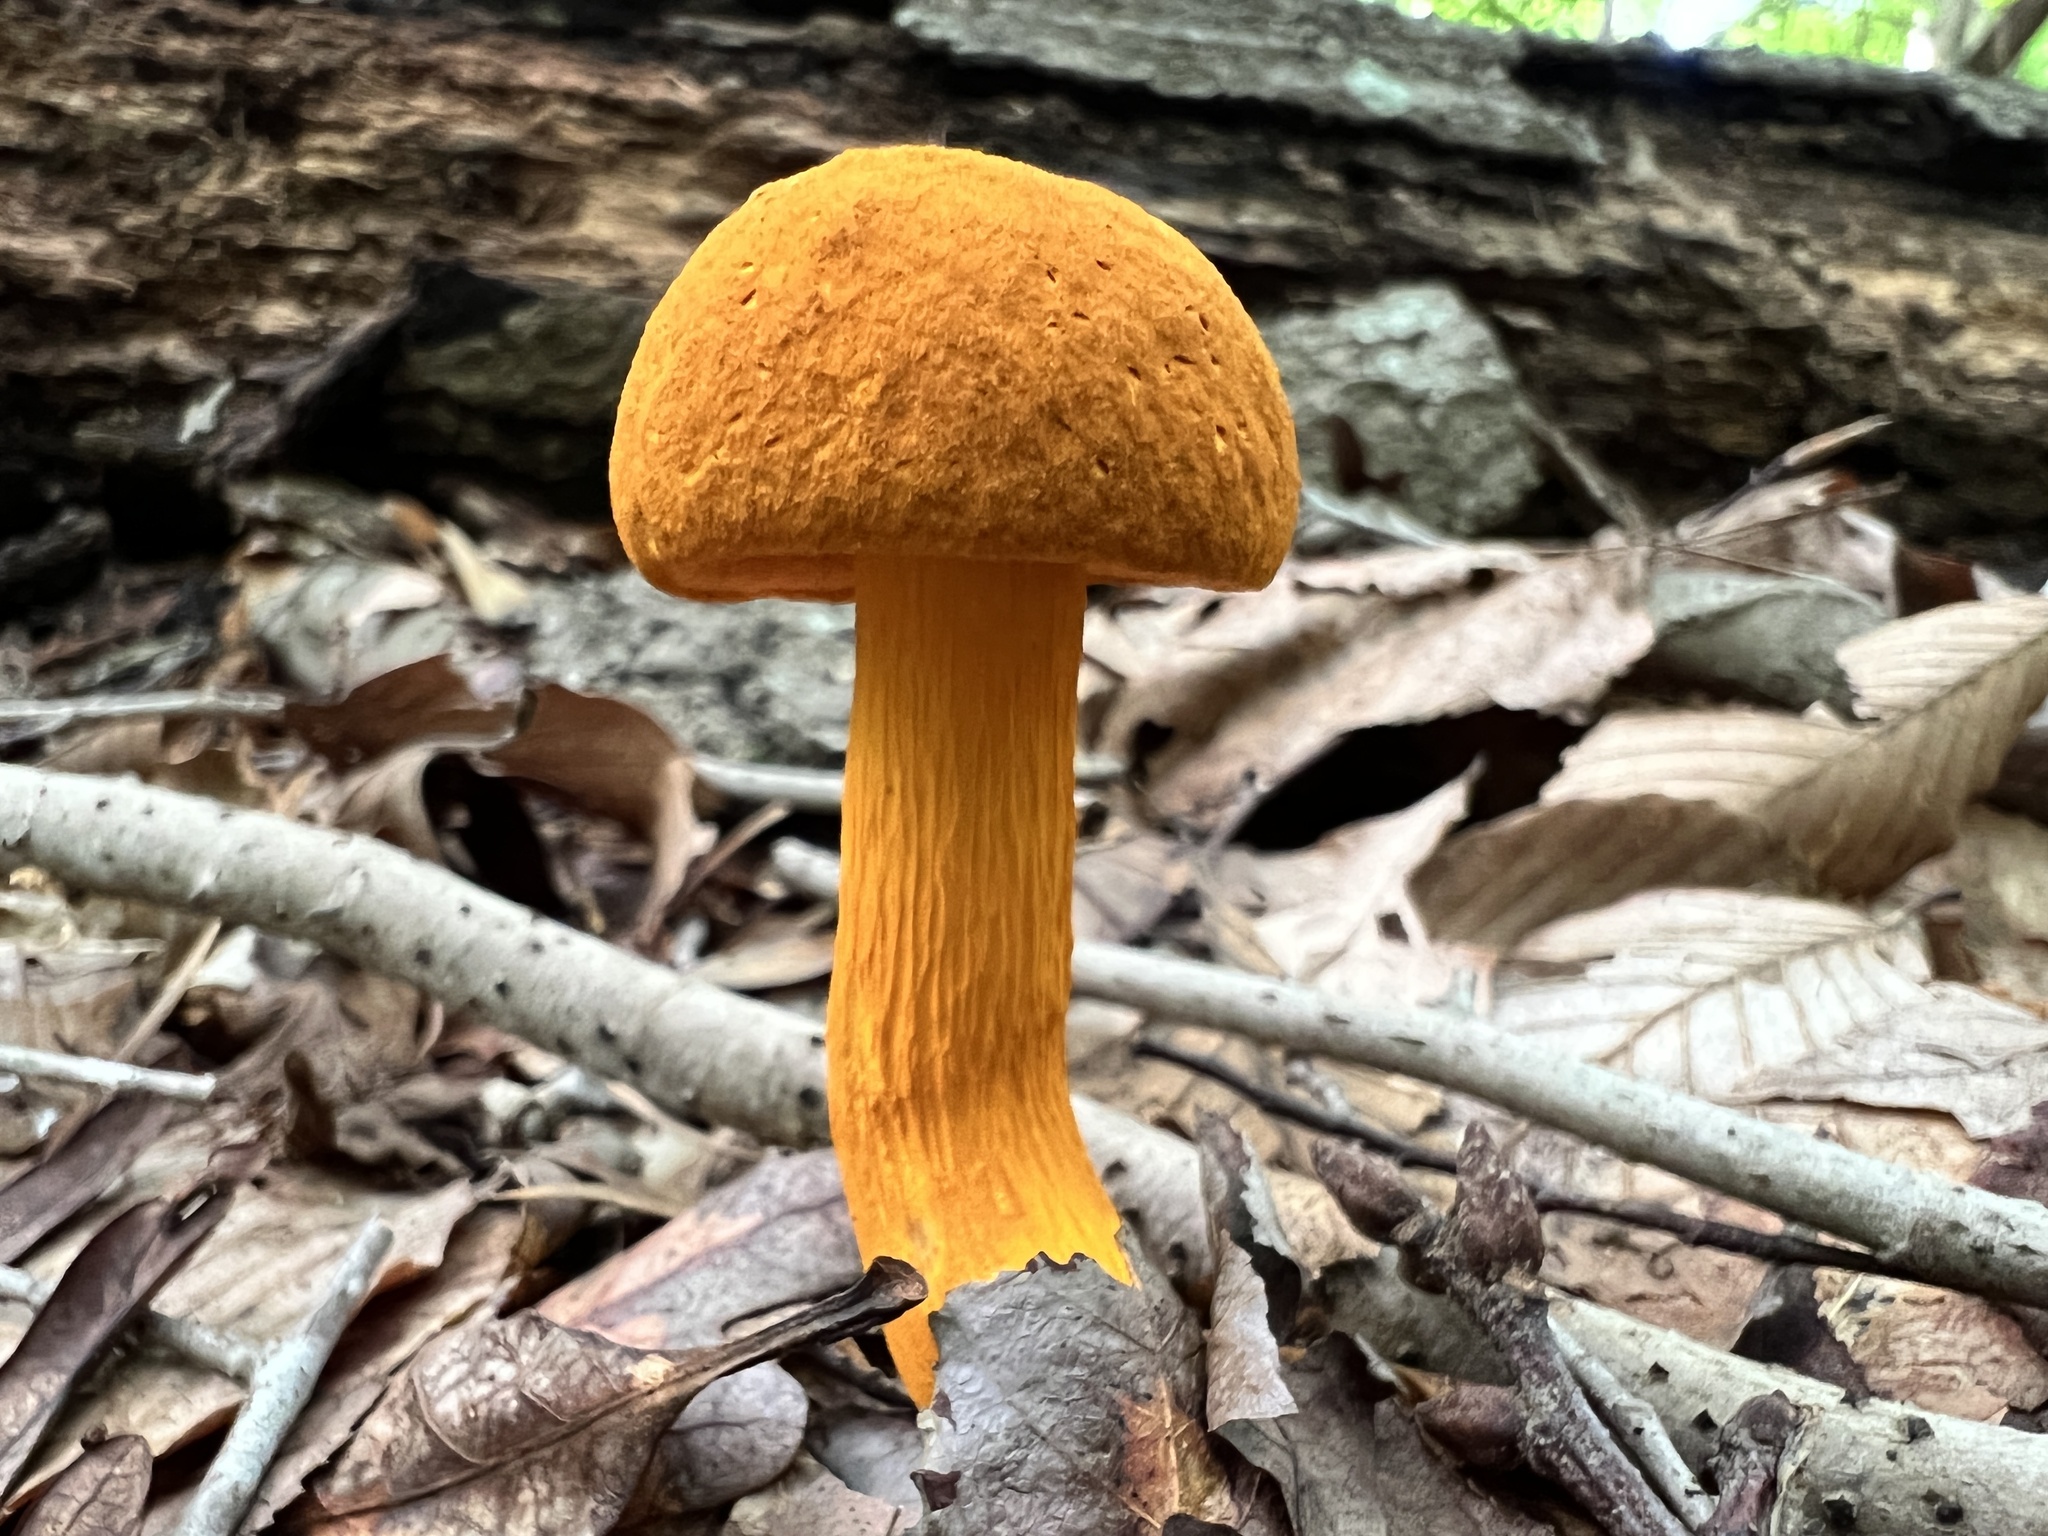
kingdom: Fungi
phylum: Basidiomycota
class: Agaricomycetes
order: Boletales
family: Boletaceae
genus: Aureoboletus
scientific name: Aureoboletus auriflammeus
